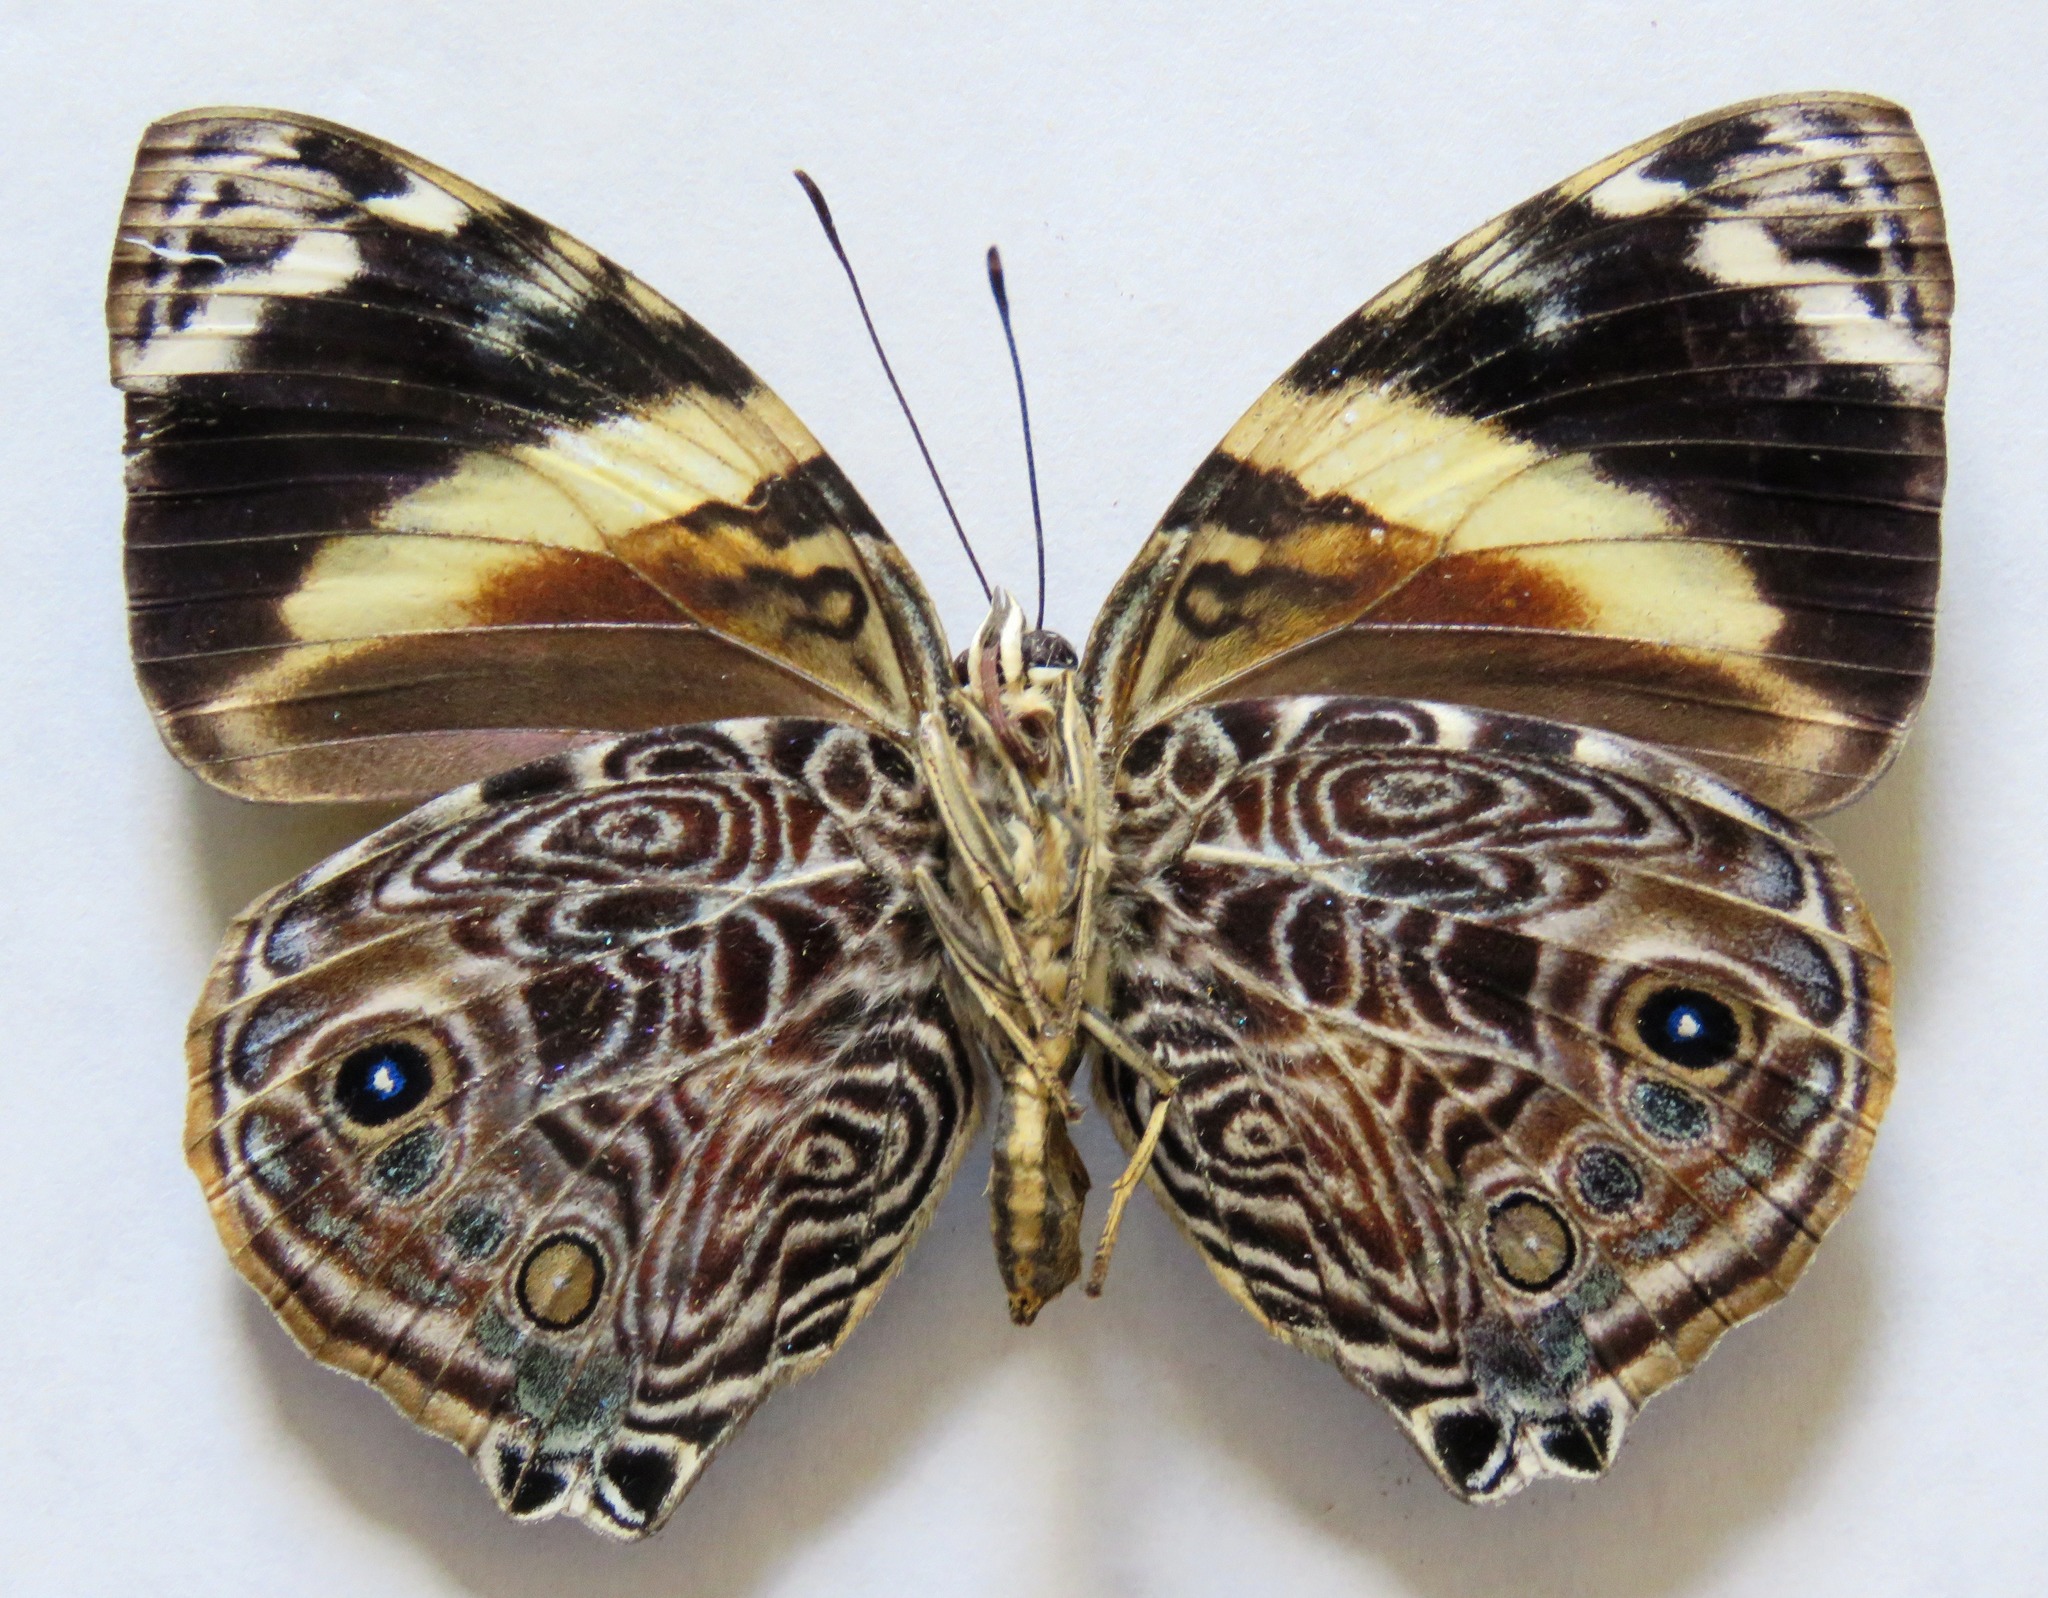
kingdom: Animalia
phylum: Arthropoda
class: Insecta
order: Lepidoptera
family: Nymphalidae
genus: Smyrna
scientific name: Smyrna blomfildia
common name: Blomfild's beauty
